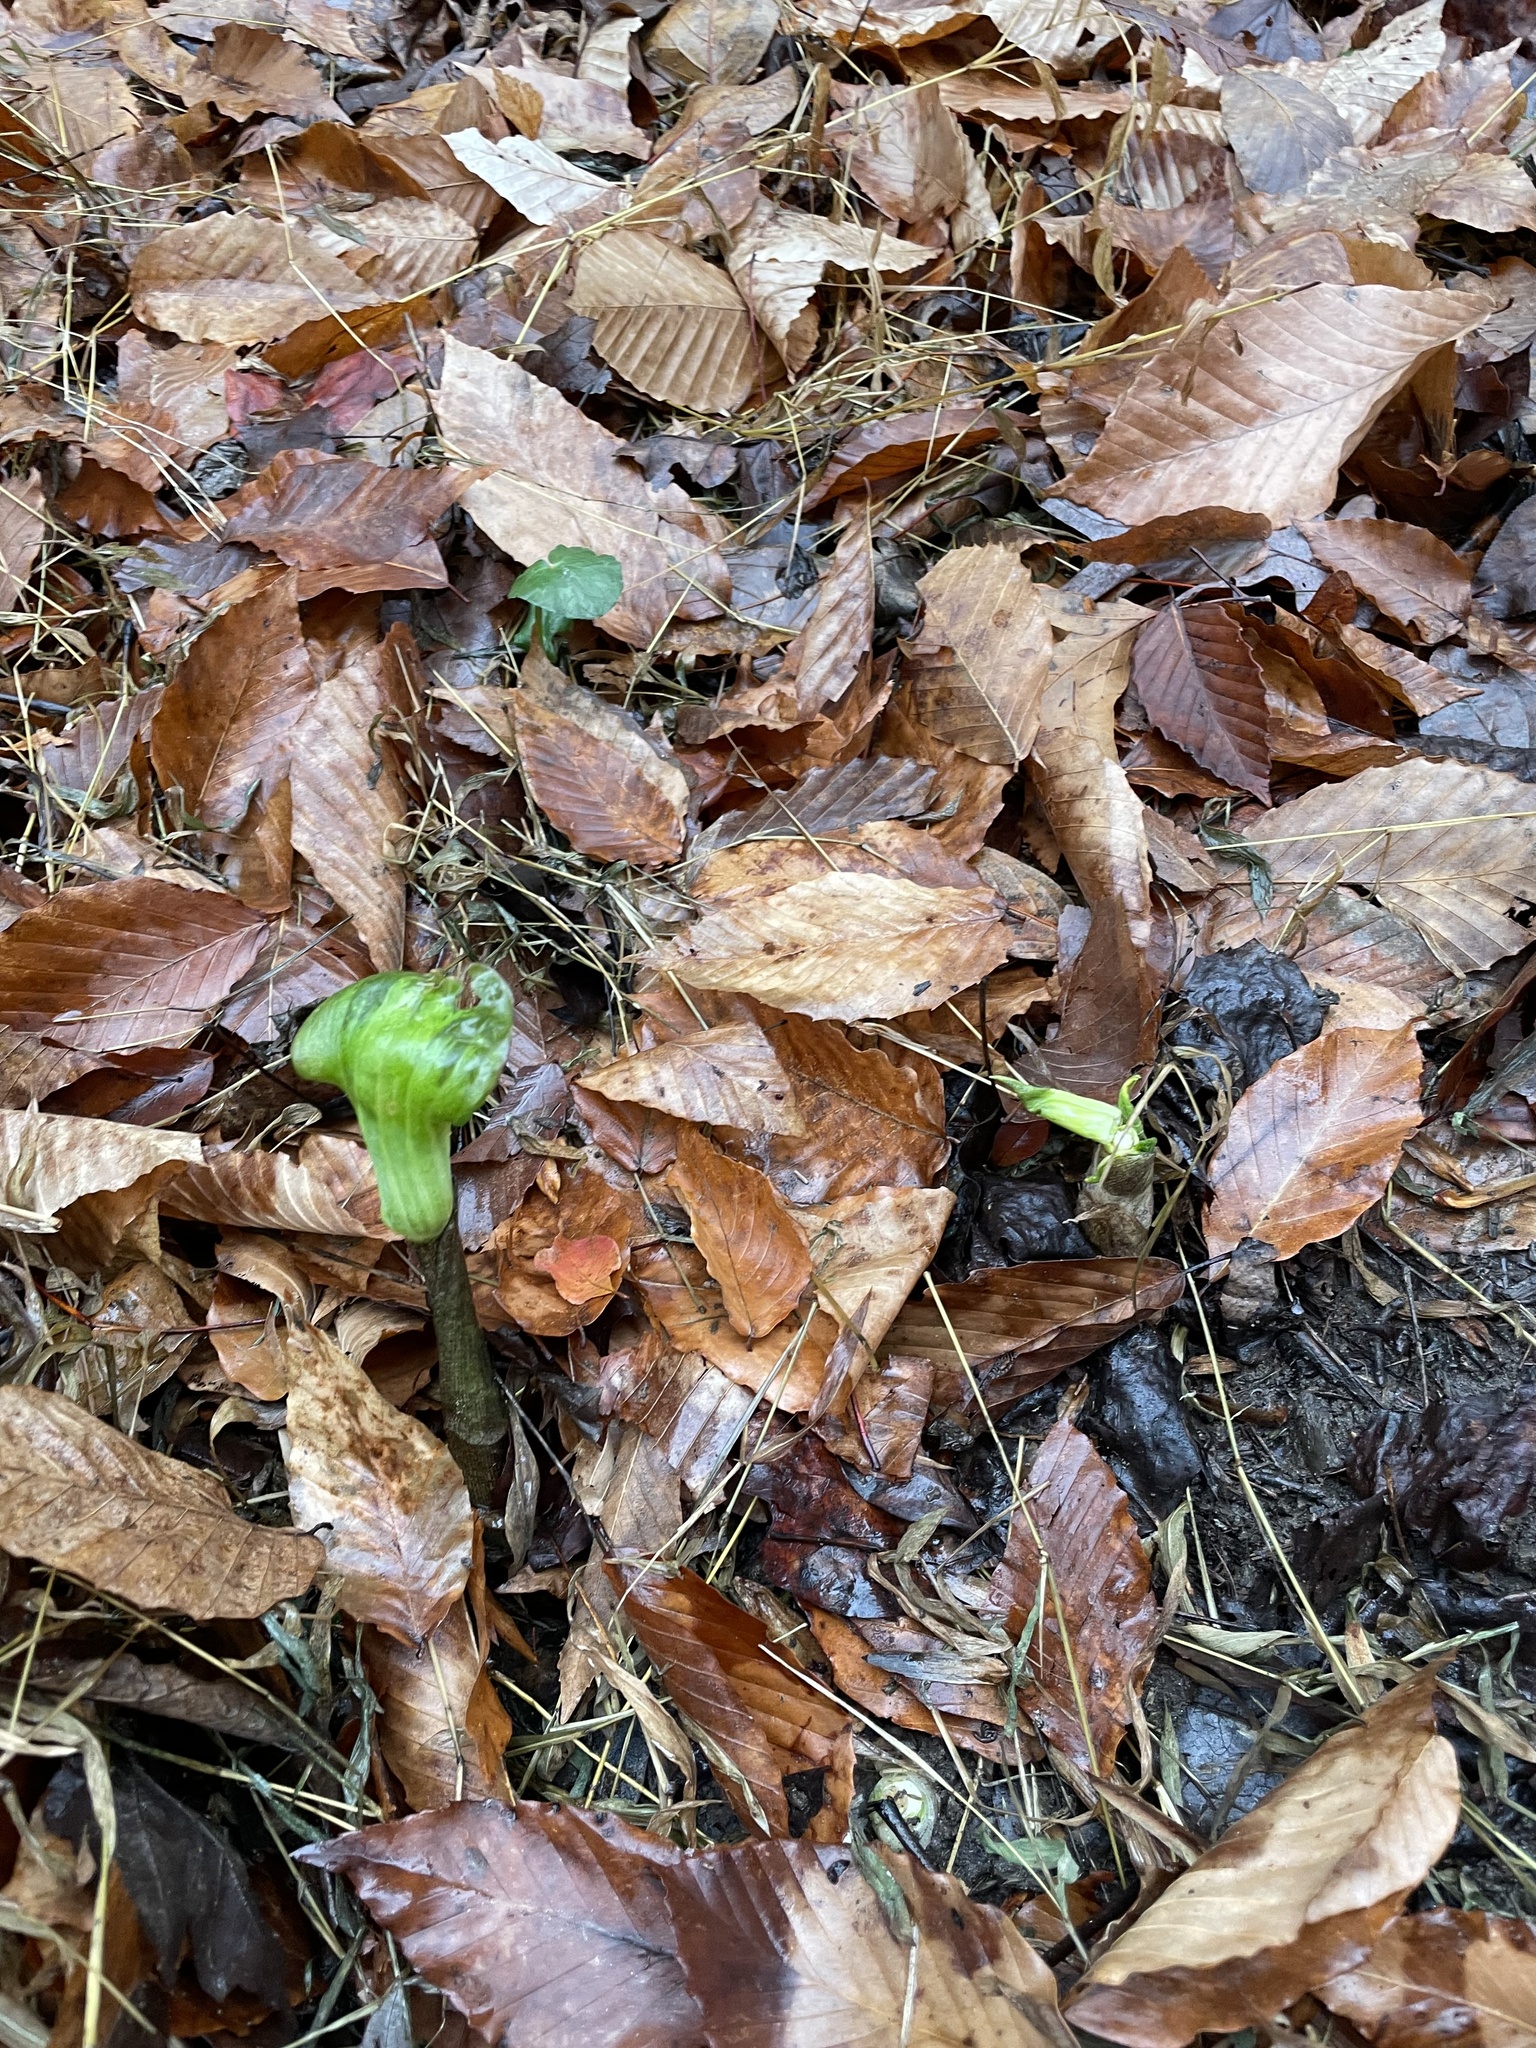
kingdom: Plantae
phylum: Tracheophyta
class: Liliopsida
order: Alismatales
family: Araceae
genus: Arisaema
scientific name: Arisaema triphyllum
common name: Jack-in-the-pulpit
